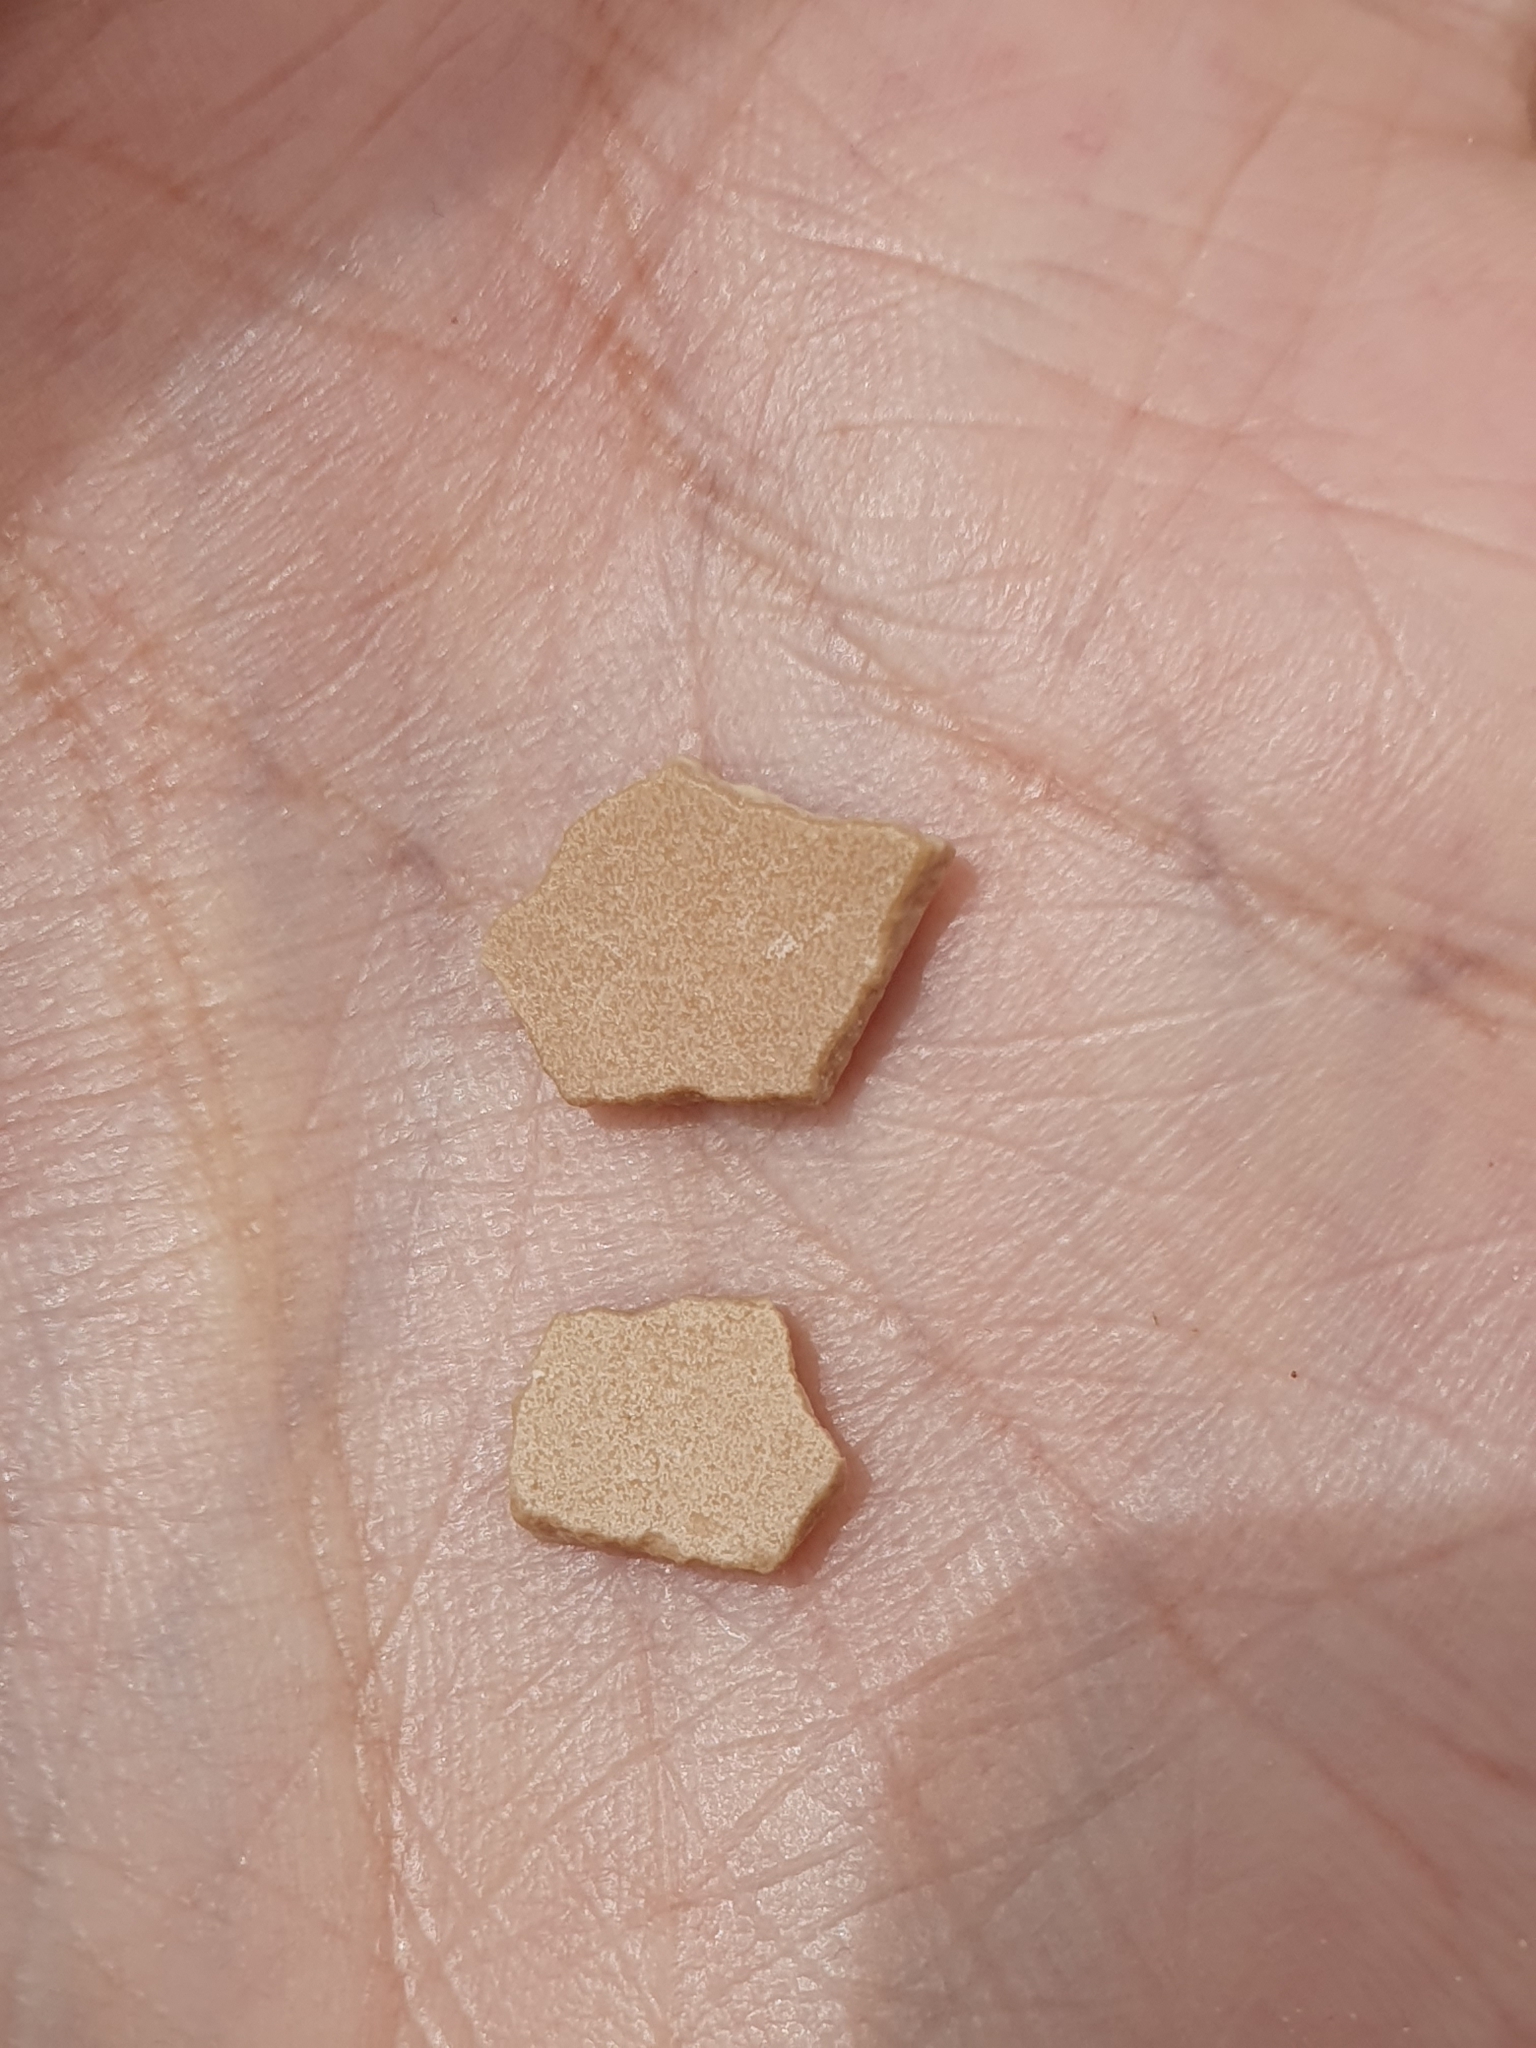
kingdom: Animalia
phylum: Chordata
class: Aves
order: Struthioniformes
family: Struthionidae
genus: Struthio
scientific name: Struthio camelus
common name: Common ostrich
